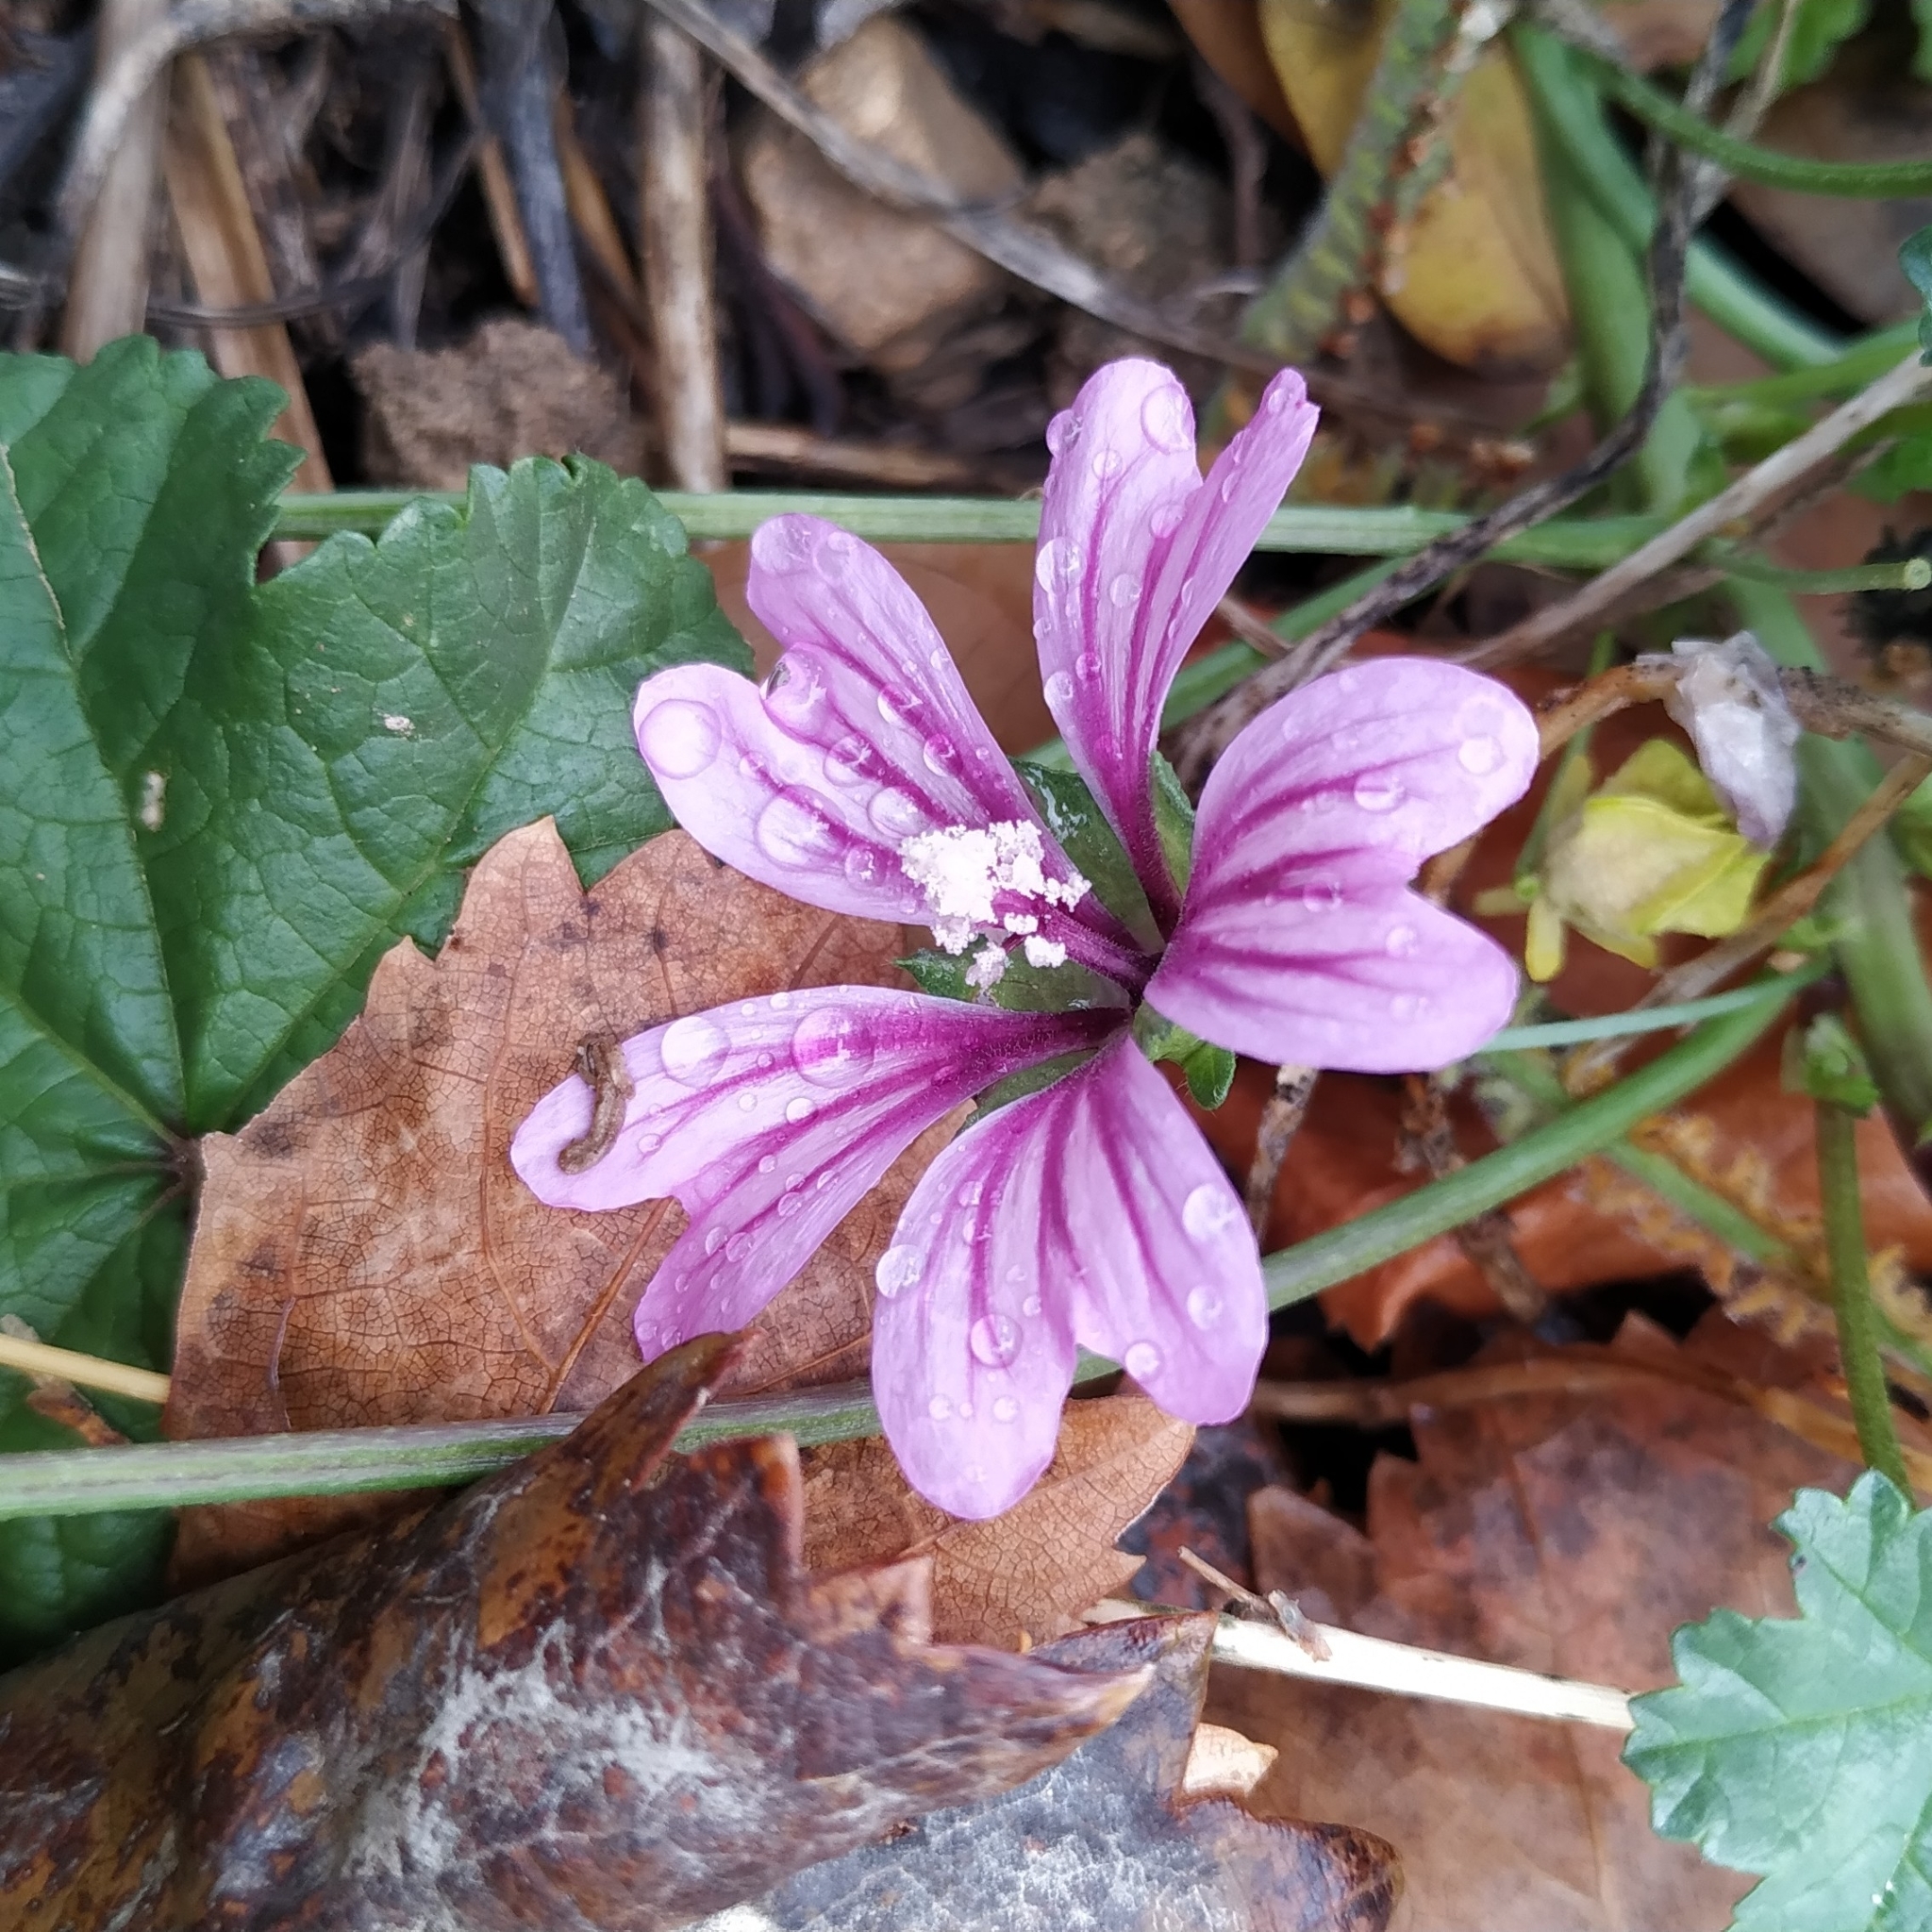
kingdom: Plantae
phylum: Tracheophyta
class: Magnoliopsida
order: Malvales
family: Malvaceae
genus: Malva
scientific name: Malva sylvestris
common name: Common mallow
